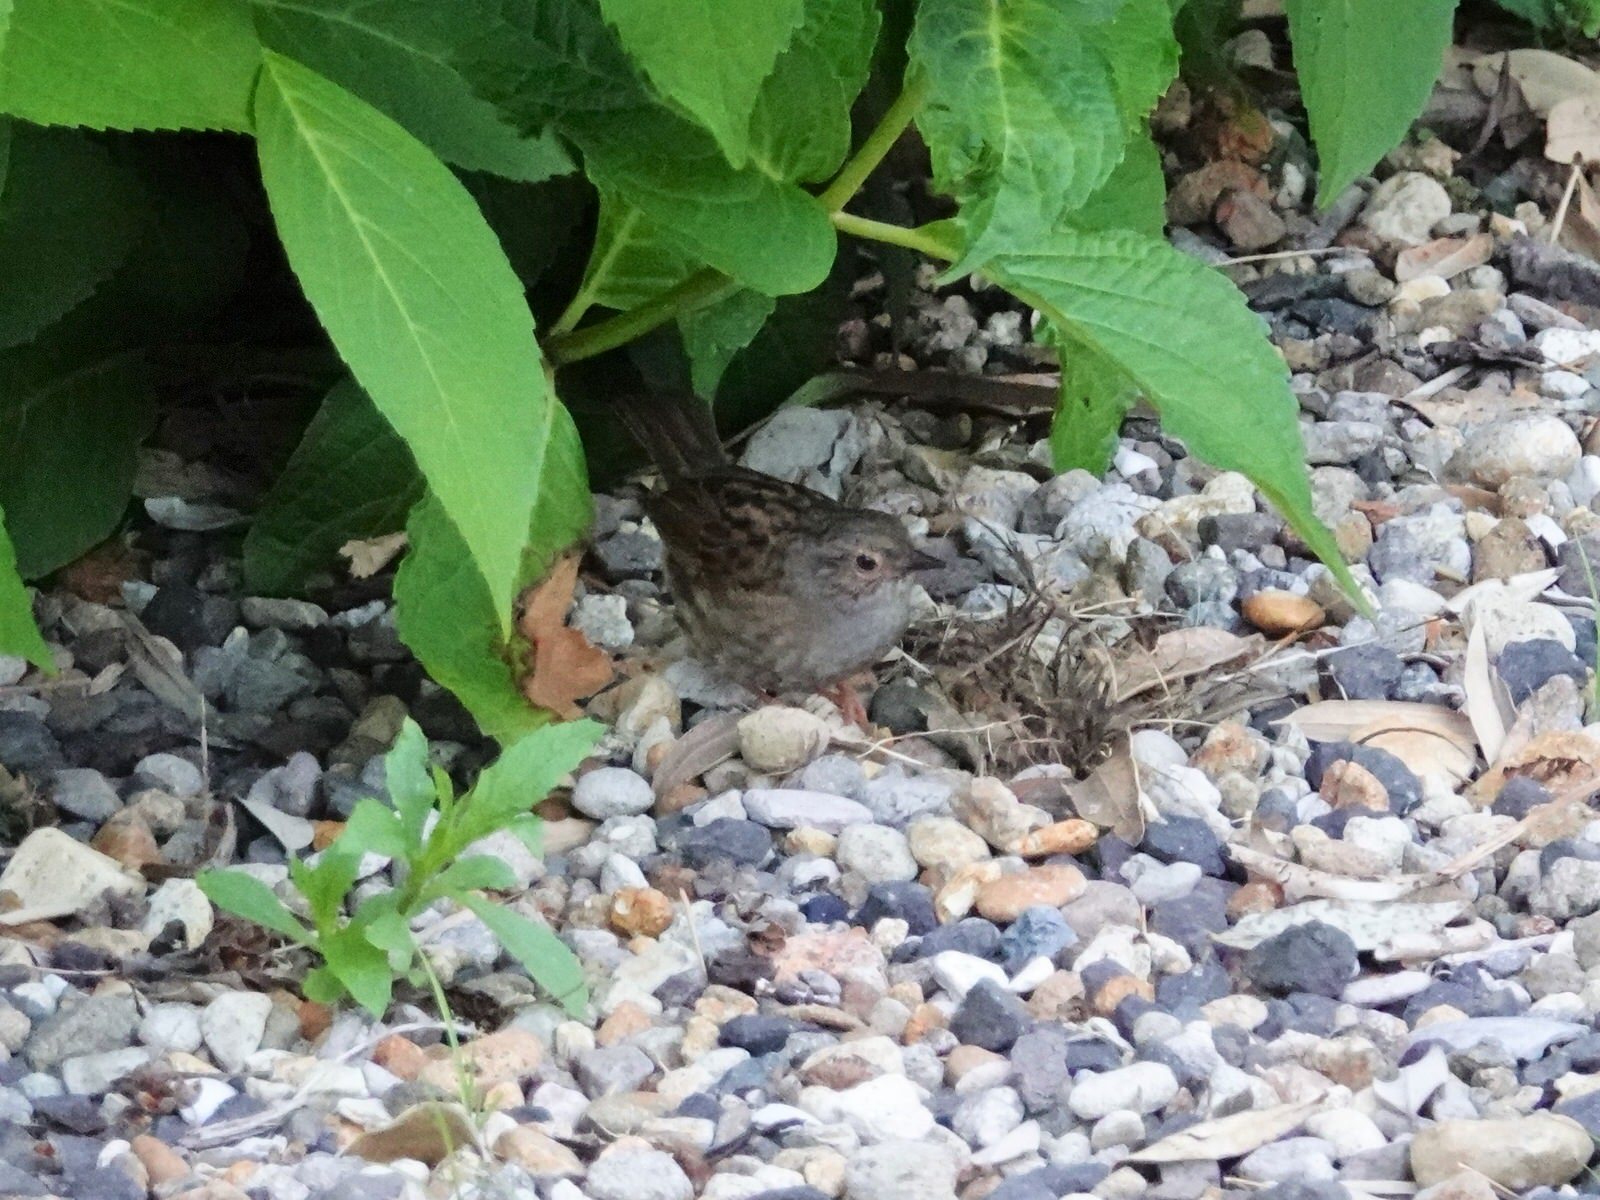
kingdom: Animalia
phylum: Chordata
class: Aves
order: Passeriformes
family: Prunellidae
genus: Prunella
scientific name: Prunella modularis
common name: Dunnock
